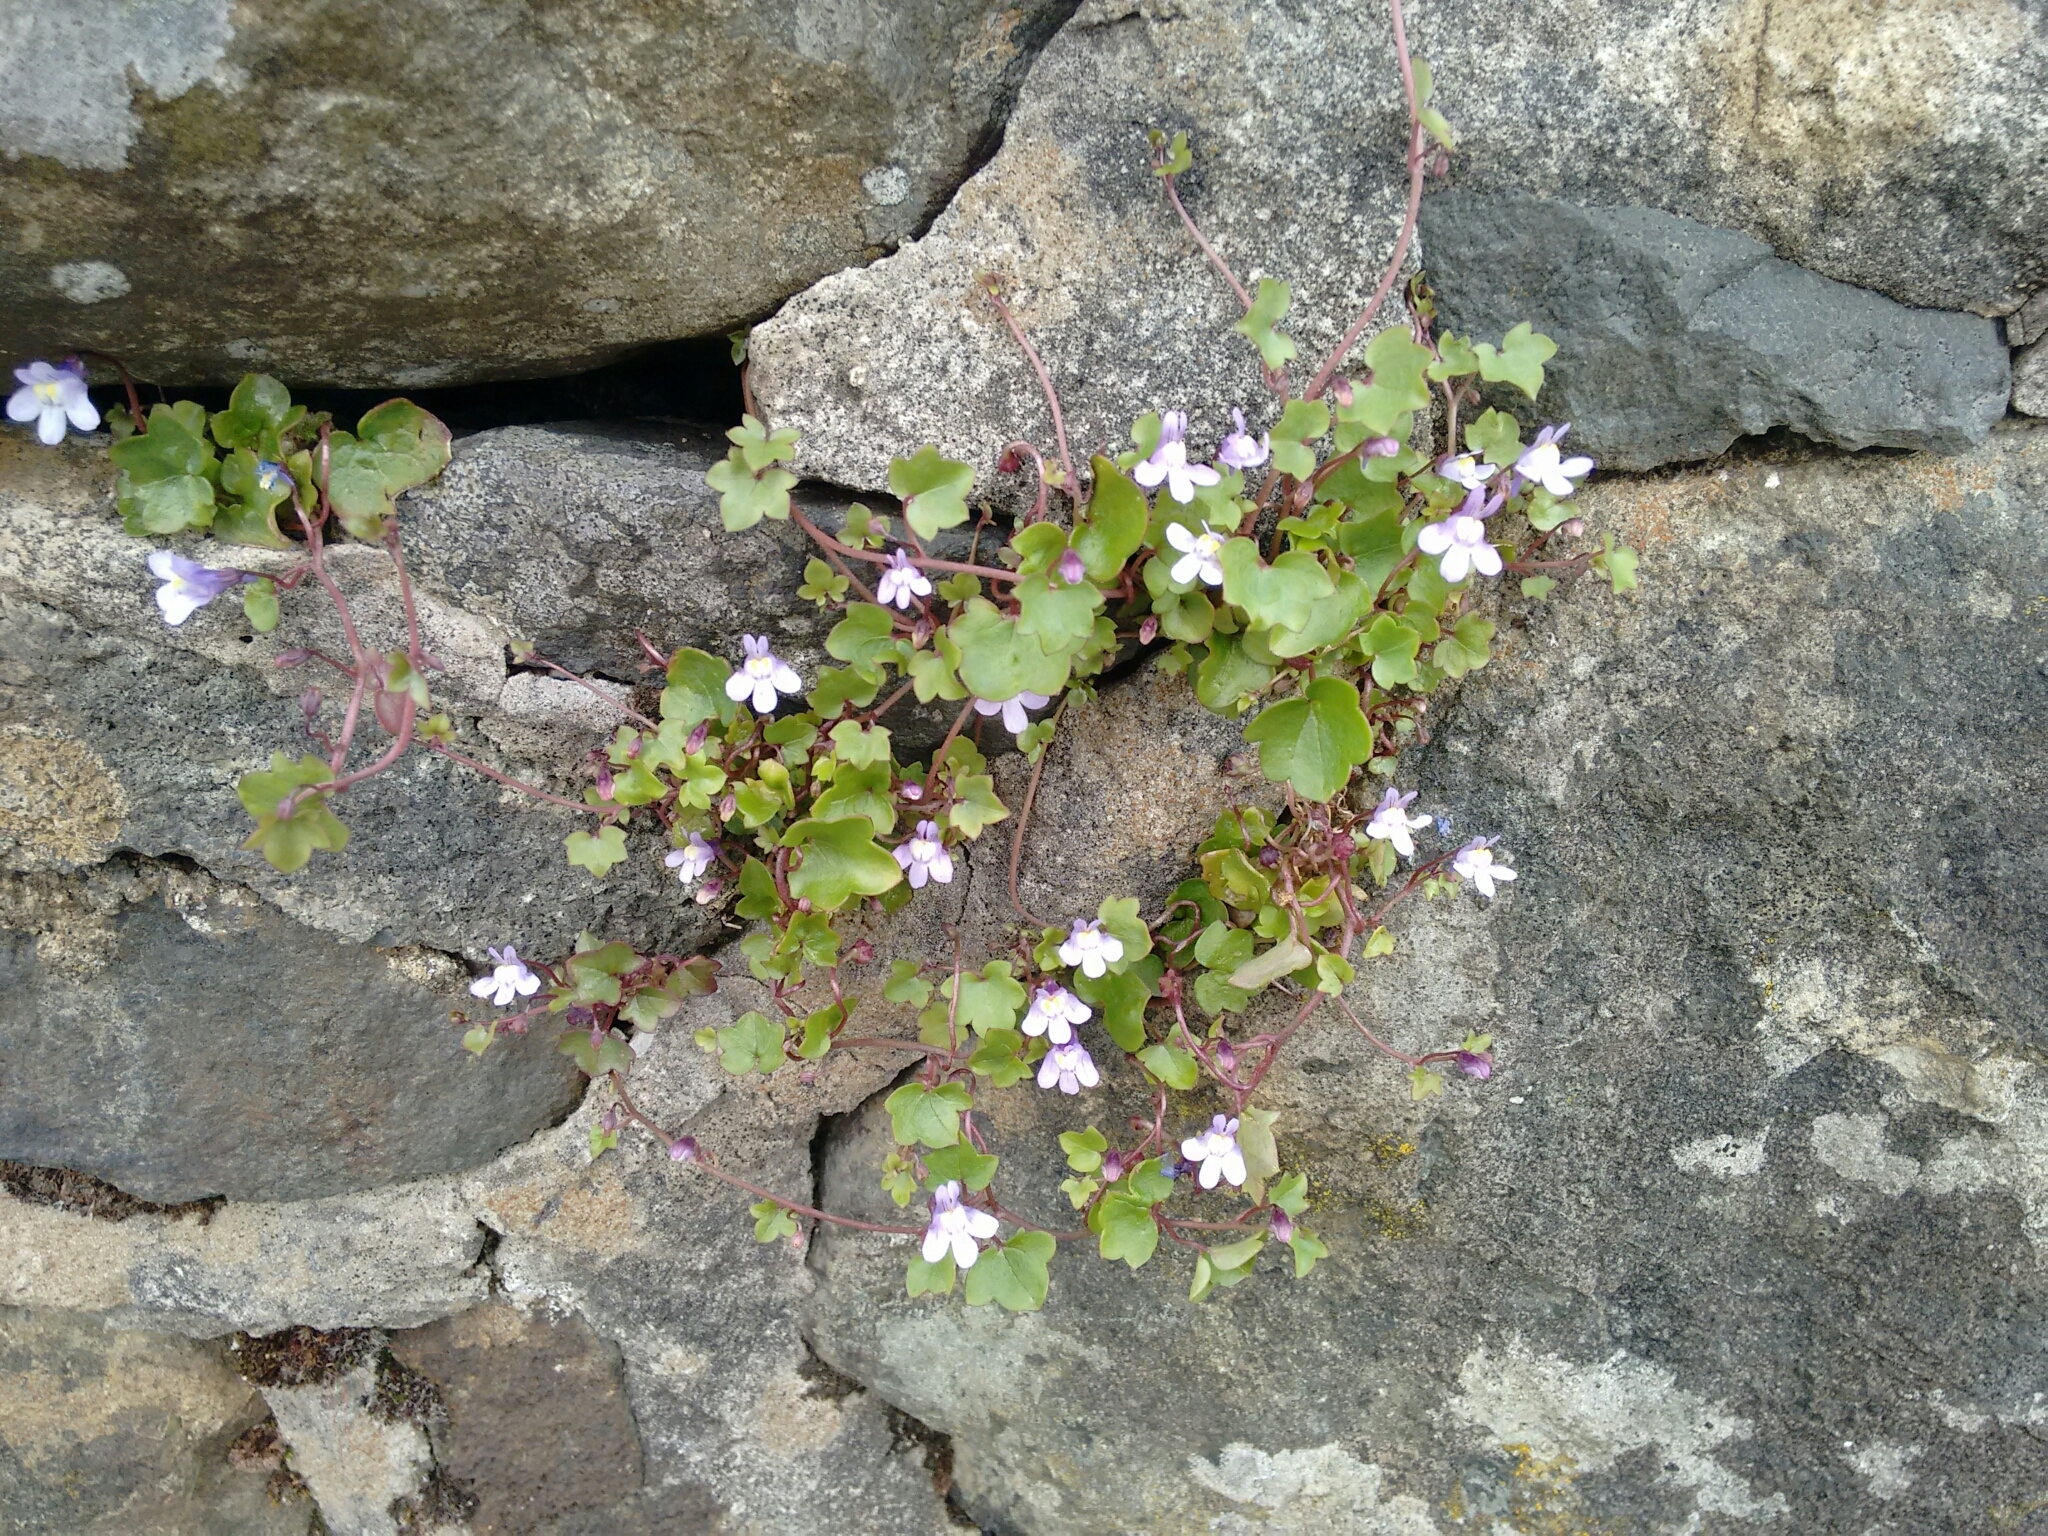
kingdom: Plantae
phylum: Tracheophyta
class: Magnoliopsida
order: Lamiales
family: Plantaginaceae
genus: Cymbalaria
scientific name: Cymbalaria muralis
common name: Ivy-leaved toadflax
